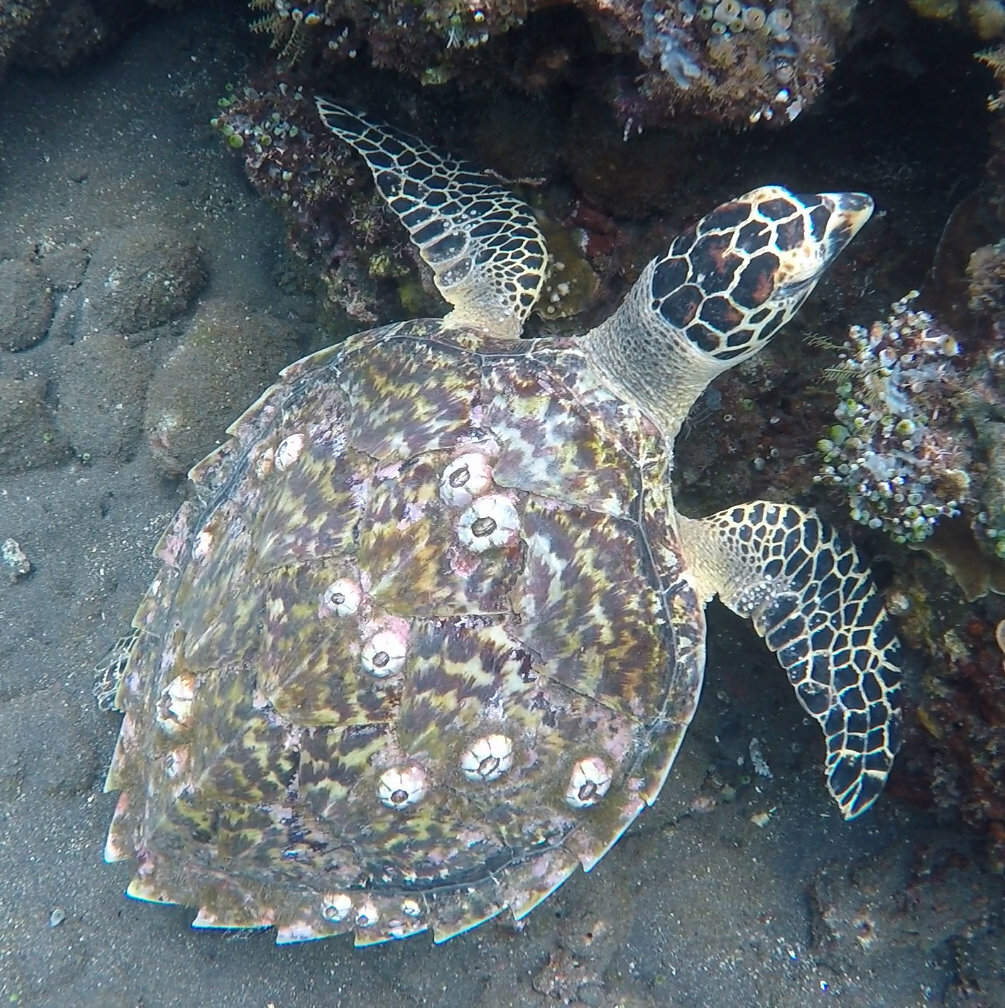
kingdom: Animalia
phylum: Chordata
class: Testudines
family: Cheloniidae
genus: Eretmochelys
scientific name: Eretmochelys imbricata
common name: Hawksbill turtle
